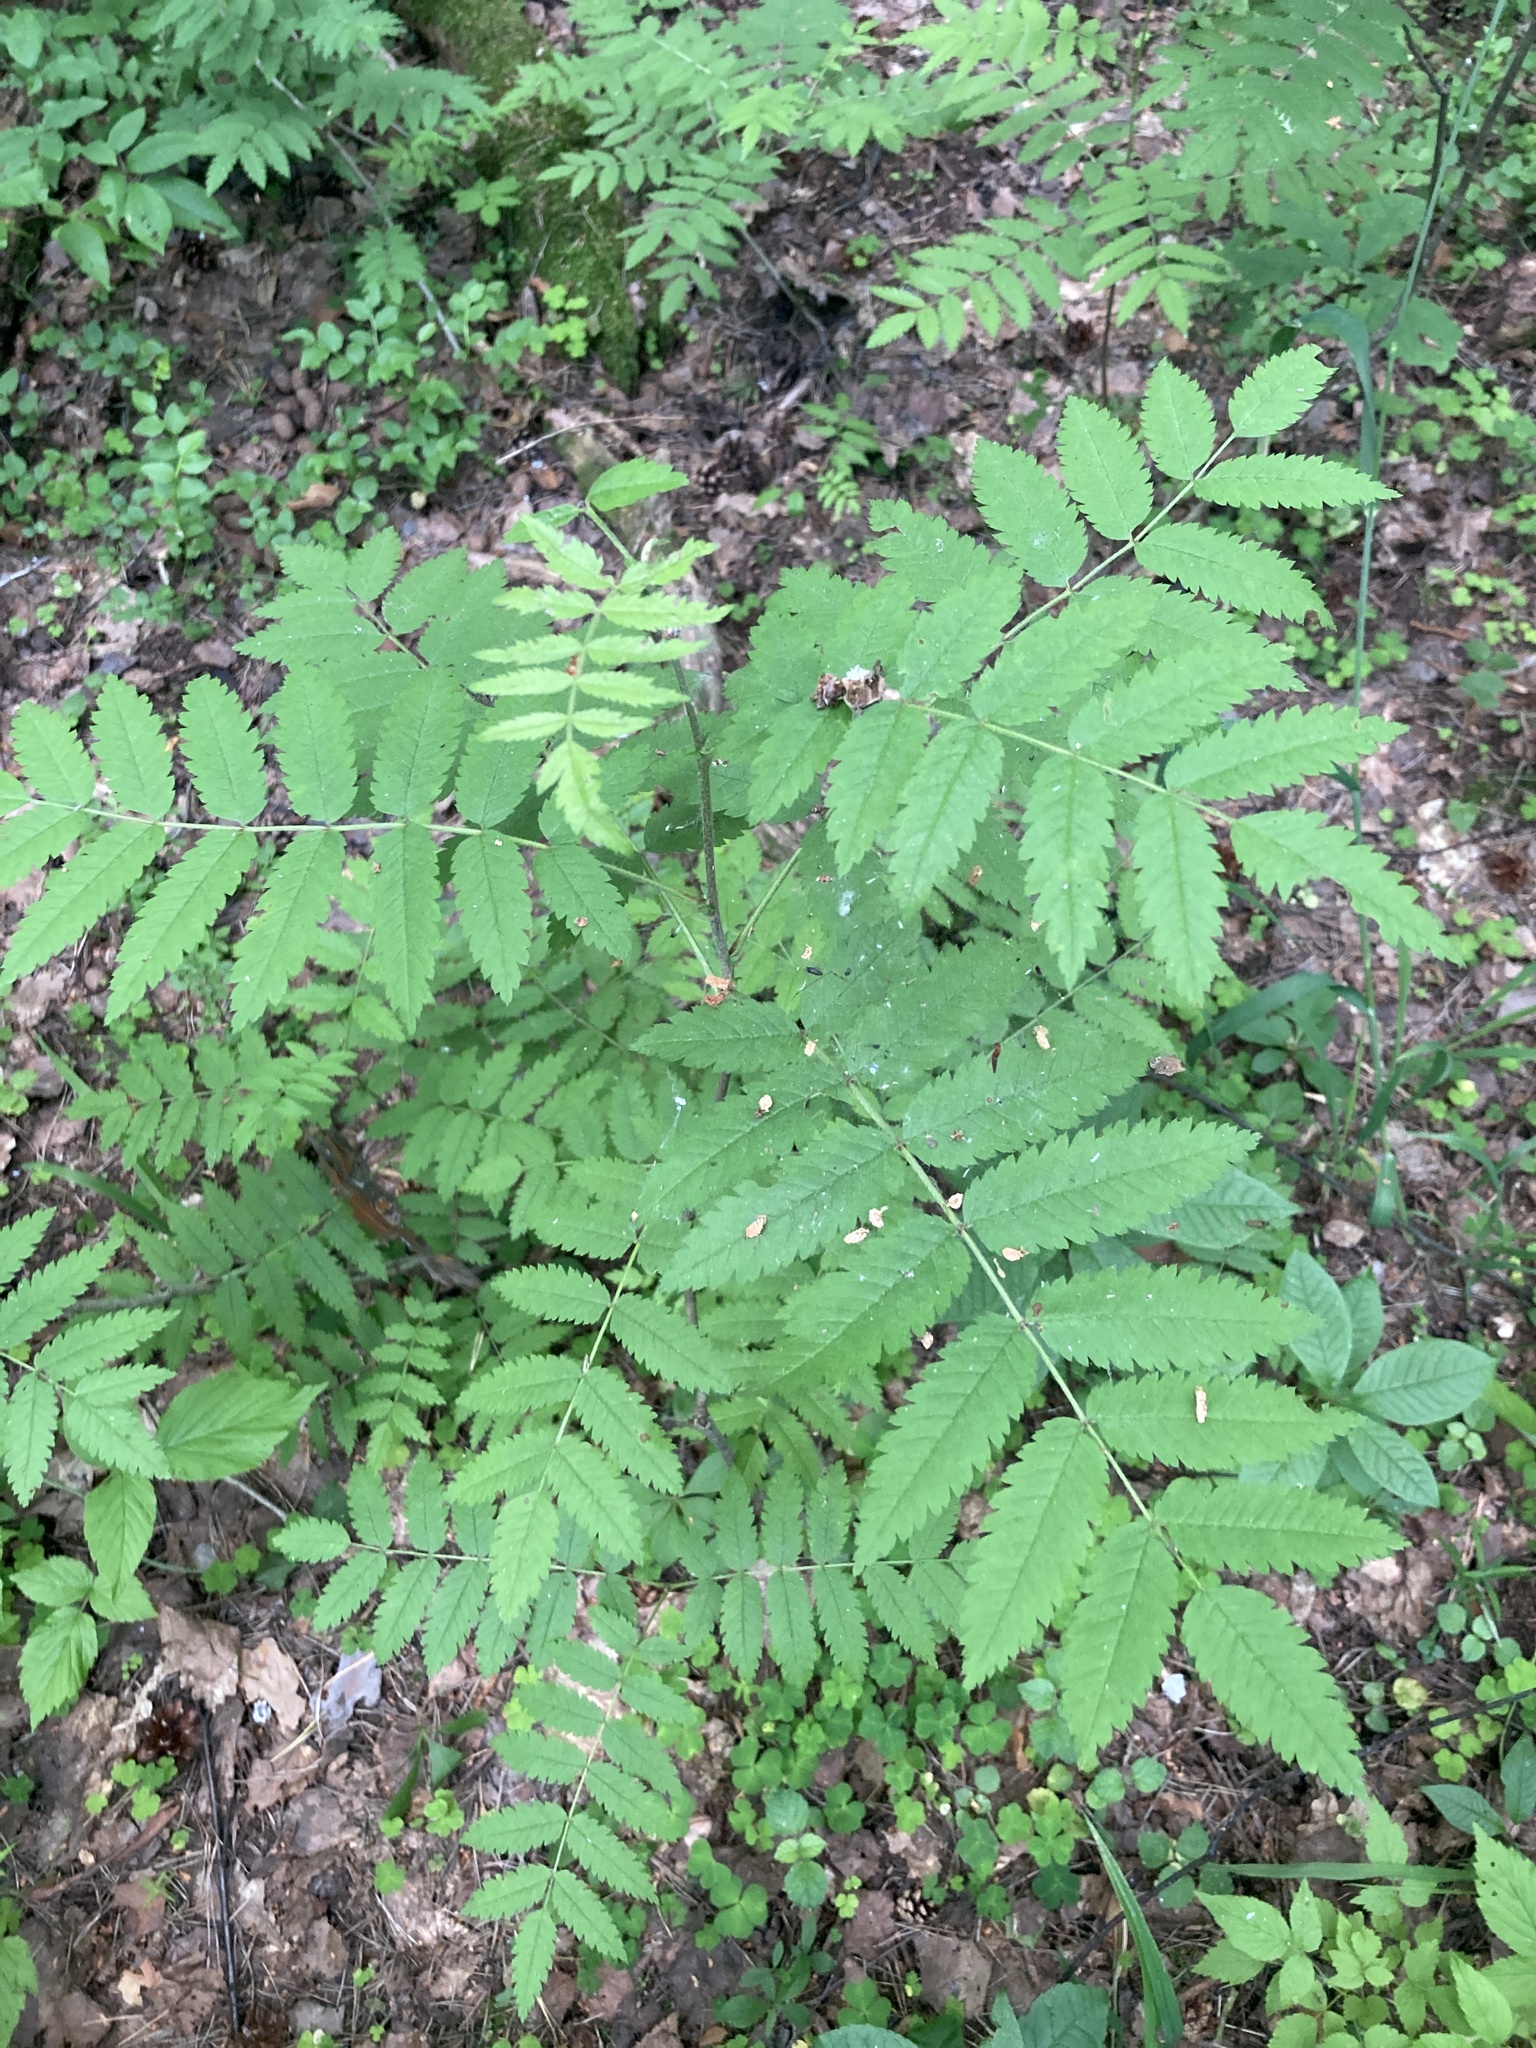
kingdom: Plantae
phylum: Tracheophyta
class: Magnoliopsida
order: Rosales
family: Rosaceae
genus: Sorbus
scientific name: Sorbus aucuparia
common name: Rowan
